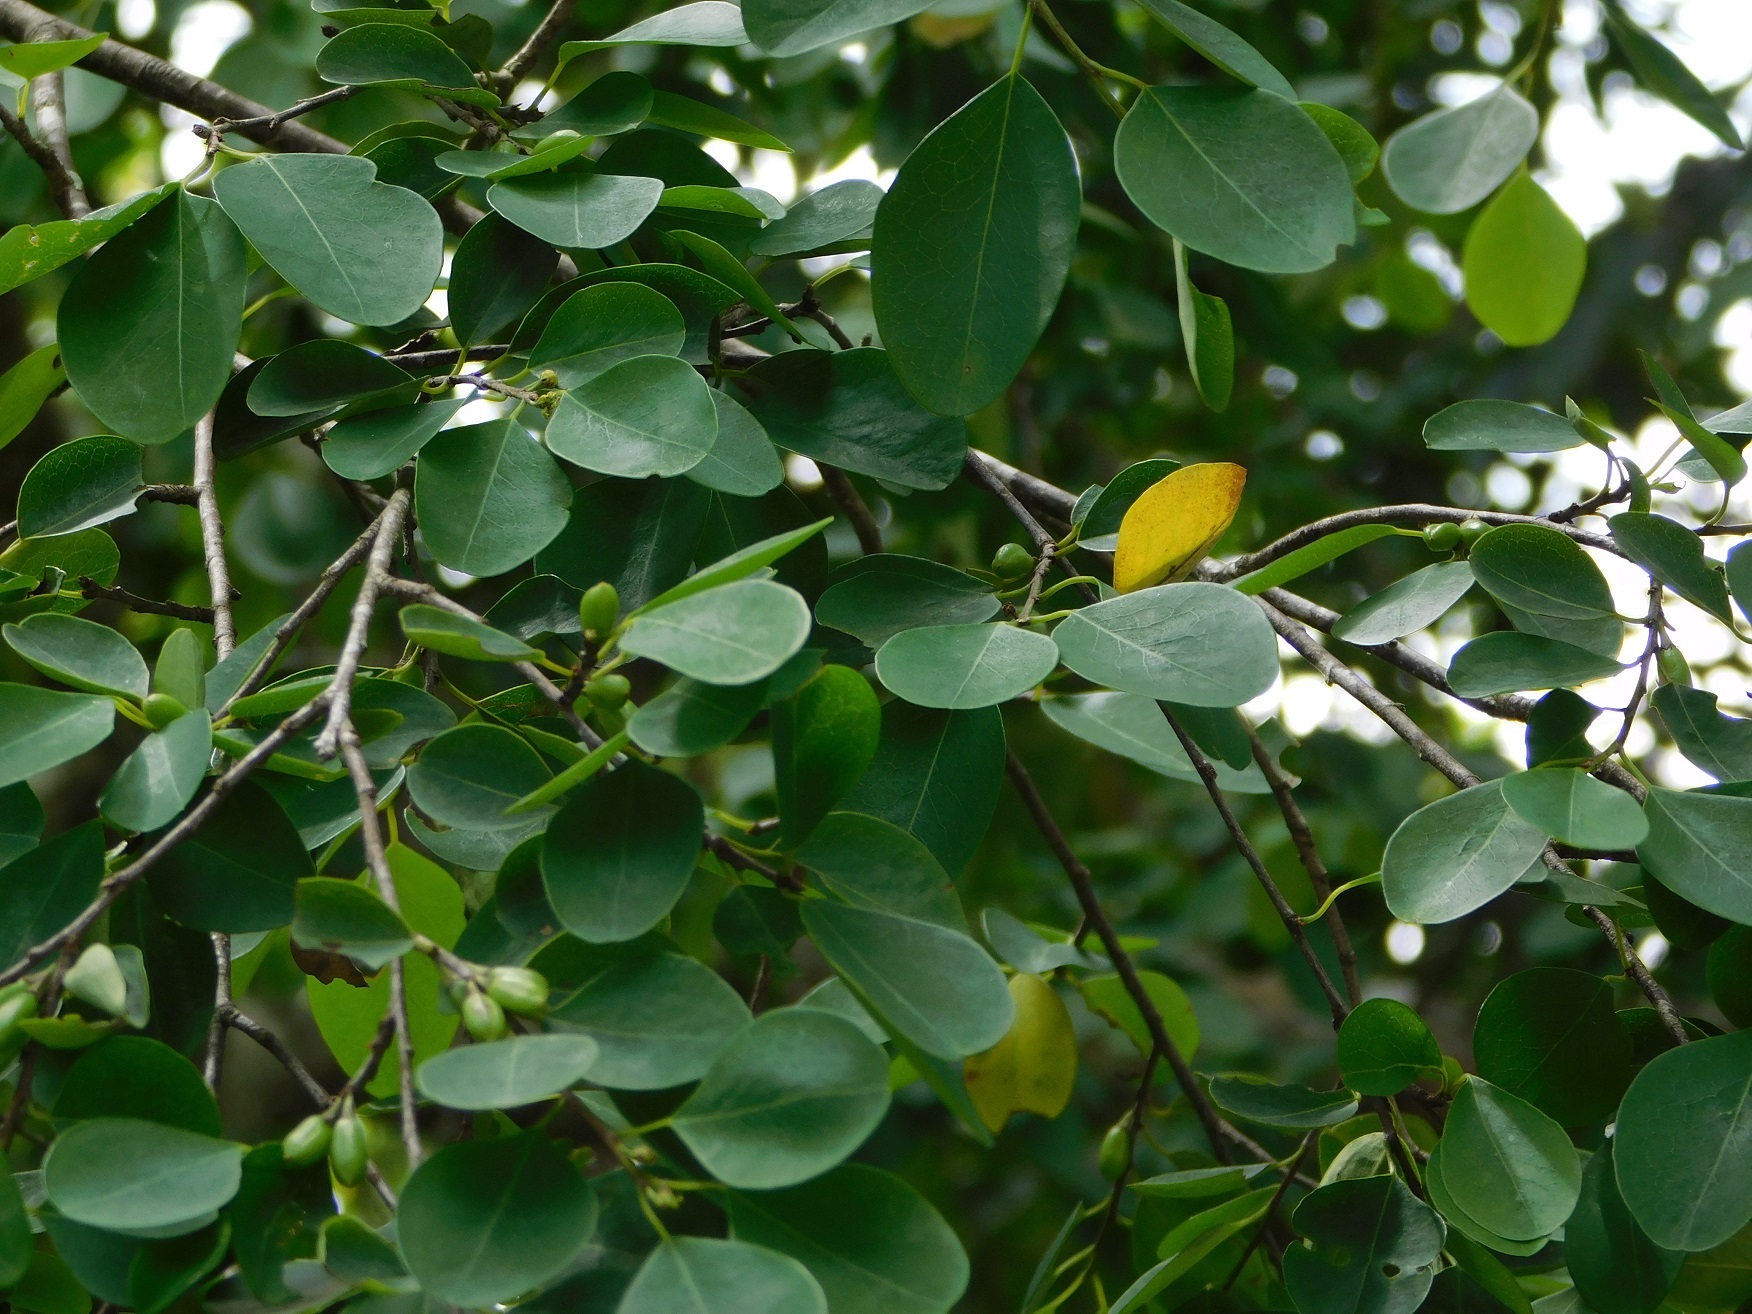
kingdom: Plantae
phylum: Tracheophyta
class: Magnoliopsida
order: Malpighiales
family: Erythroxylaceae
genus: Erythroxylum
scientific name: Erythroxylum guatemalense
